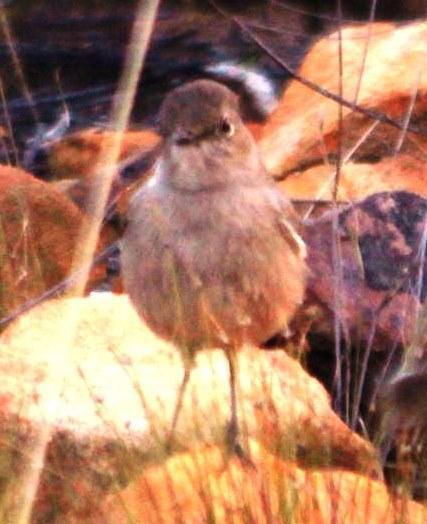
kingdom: Animalia
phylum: Chordata
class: Aves
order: Passeriformes
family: Muscicapidae
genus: Oenanthe
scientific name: Oenanthe familiaris
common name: Familiar chat
